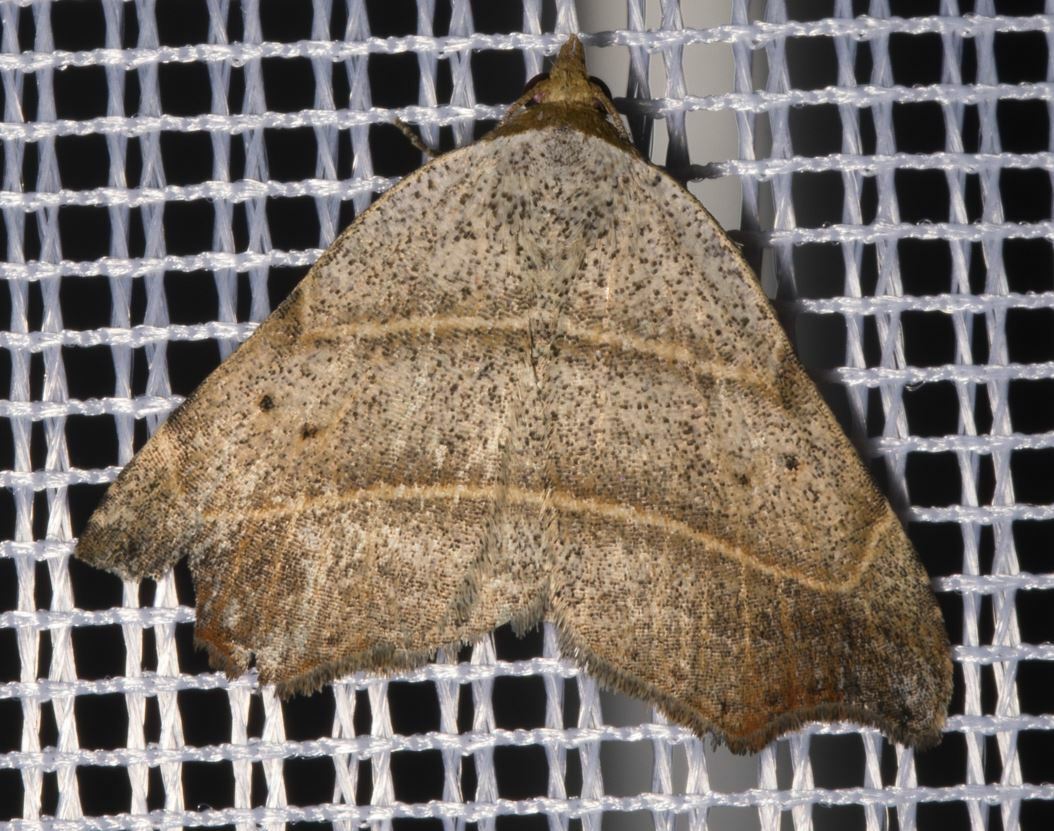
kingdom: Animalia
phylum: Arthropoda
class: Insecta
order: Lepidoptera
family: Erebidae
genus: Laspeyria
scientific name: Laspeyria flexula
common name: Beautiful hook-tip
